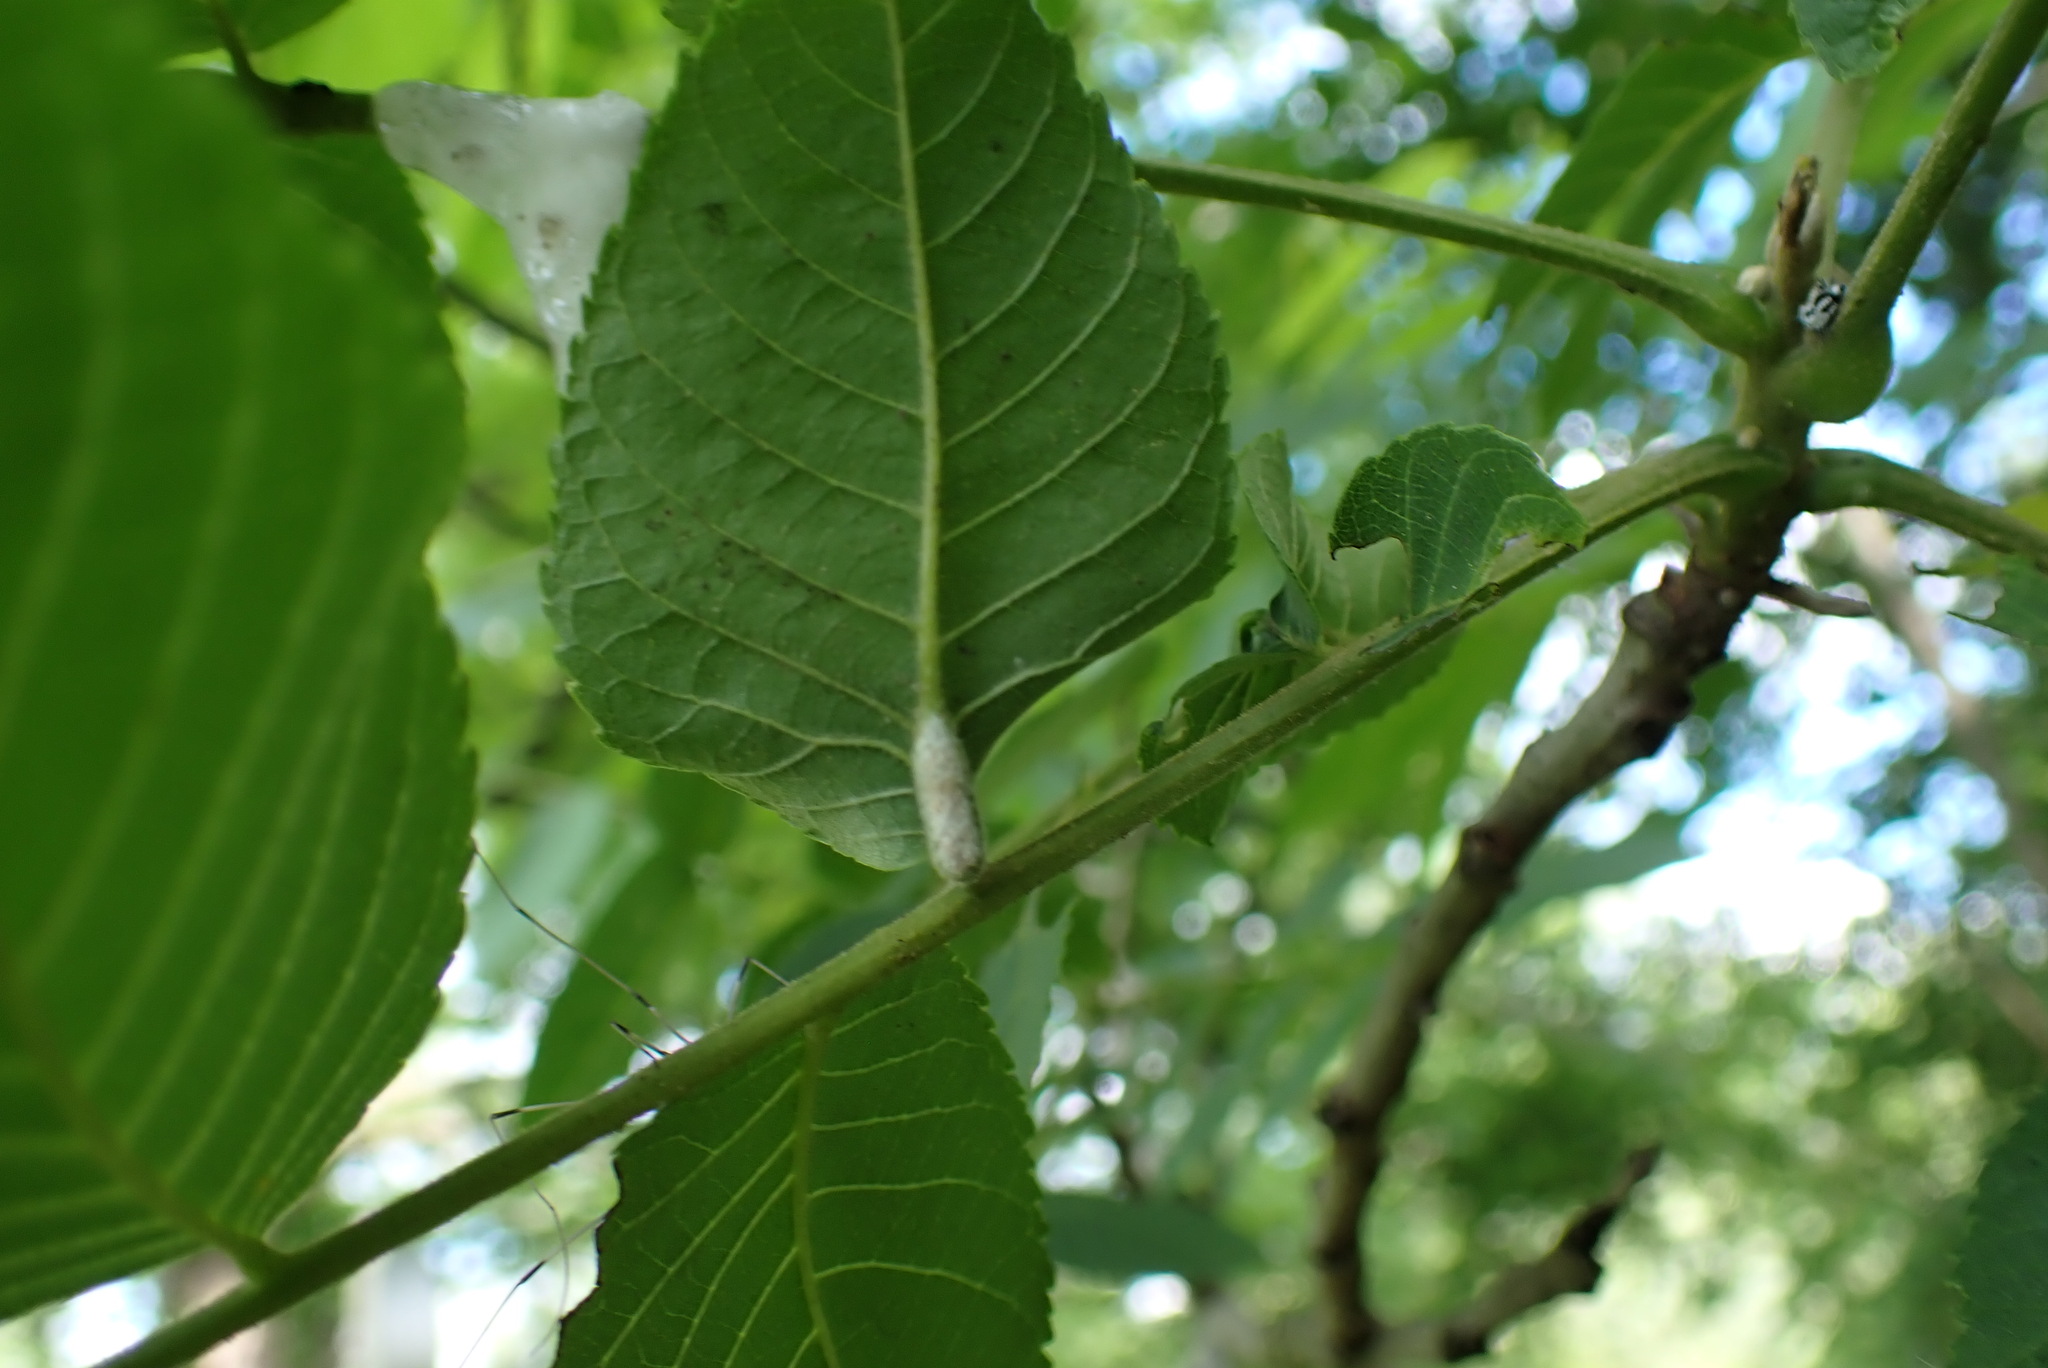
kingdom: Animalia
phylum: Arthropoda
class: Arachnida
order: Trombidiformes
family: Eriophyidae
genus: Aceria
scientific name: Aceria
